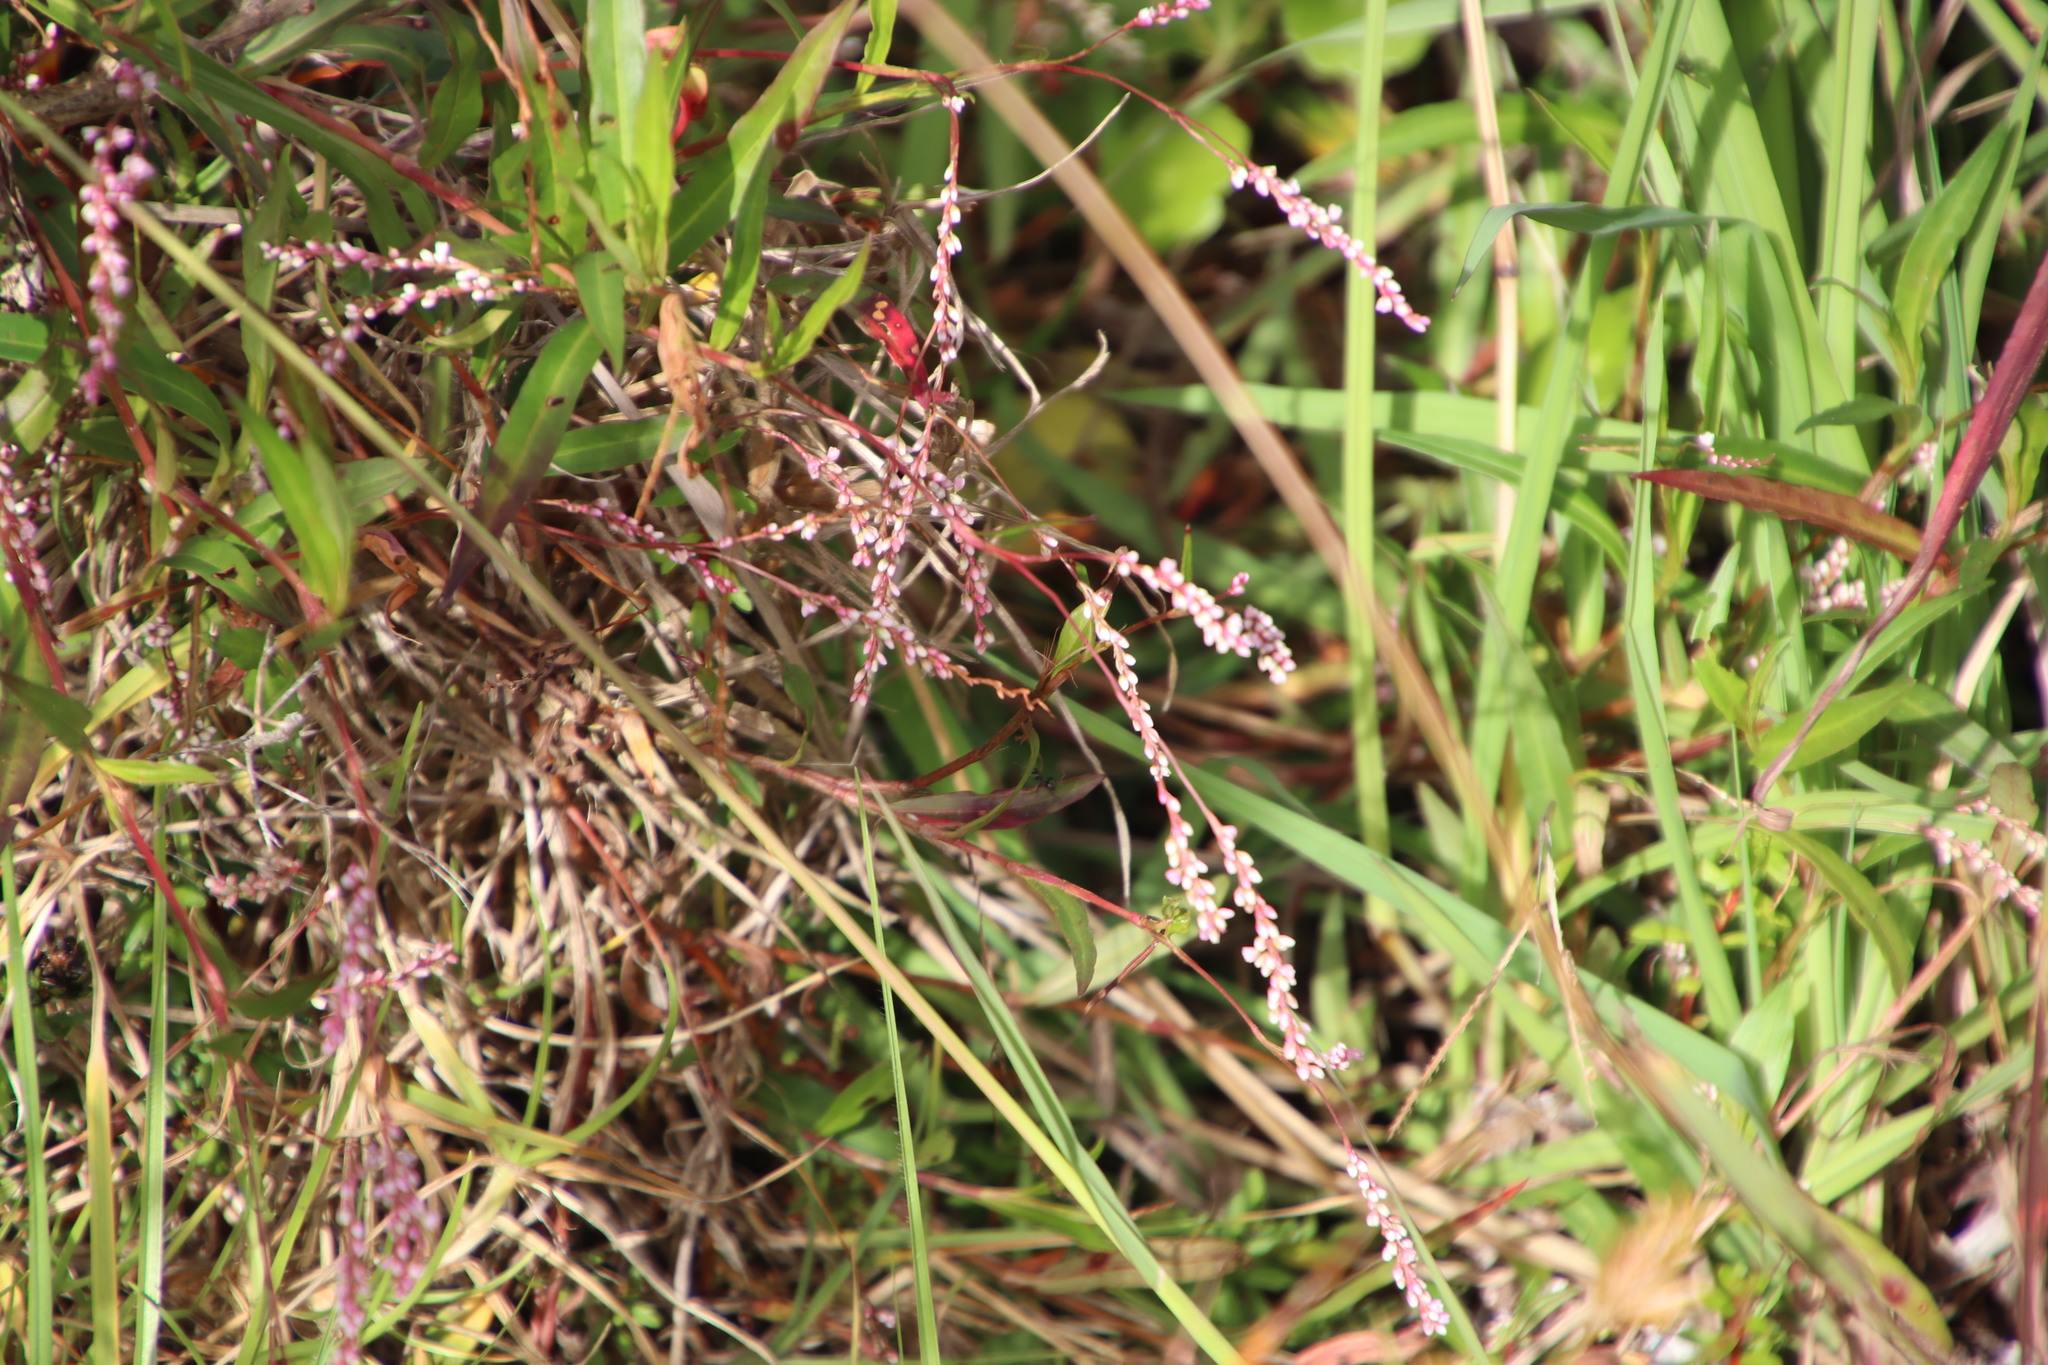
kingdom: Plantae
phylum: Tracheophyta
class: Magnoliopsida
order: Caryophyllales
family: Polygonaceae
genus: Persicaria
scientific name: Persicaria decipiens
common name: Willow-weed
